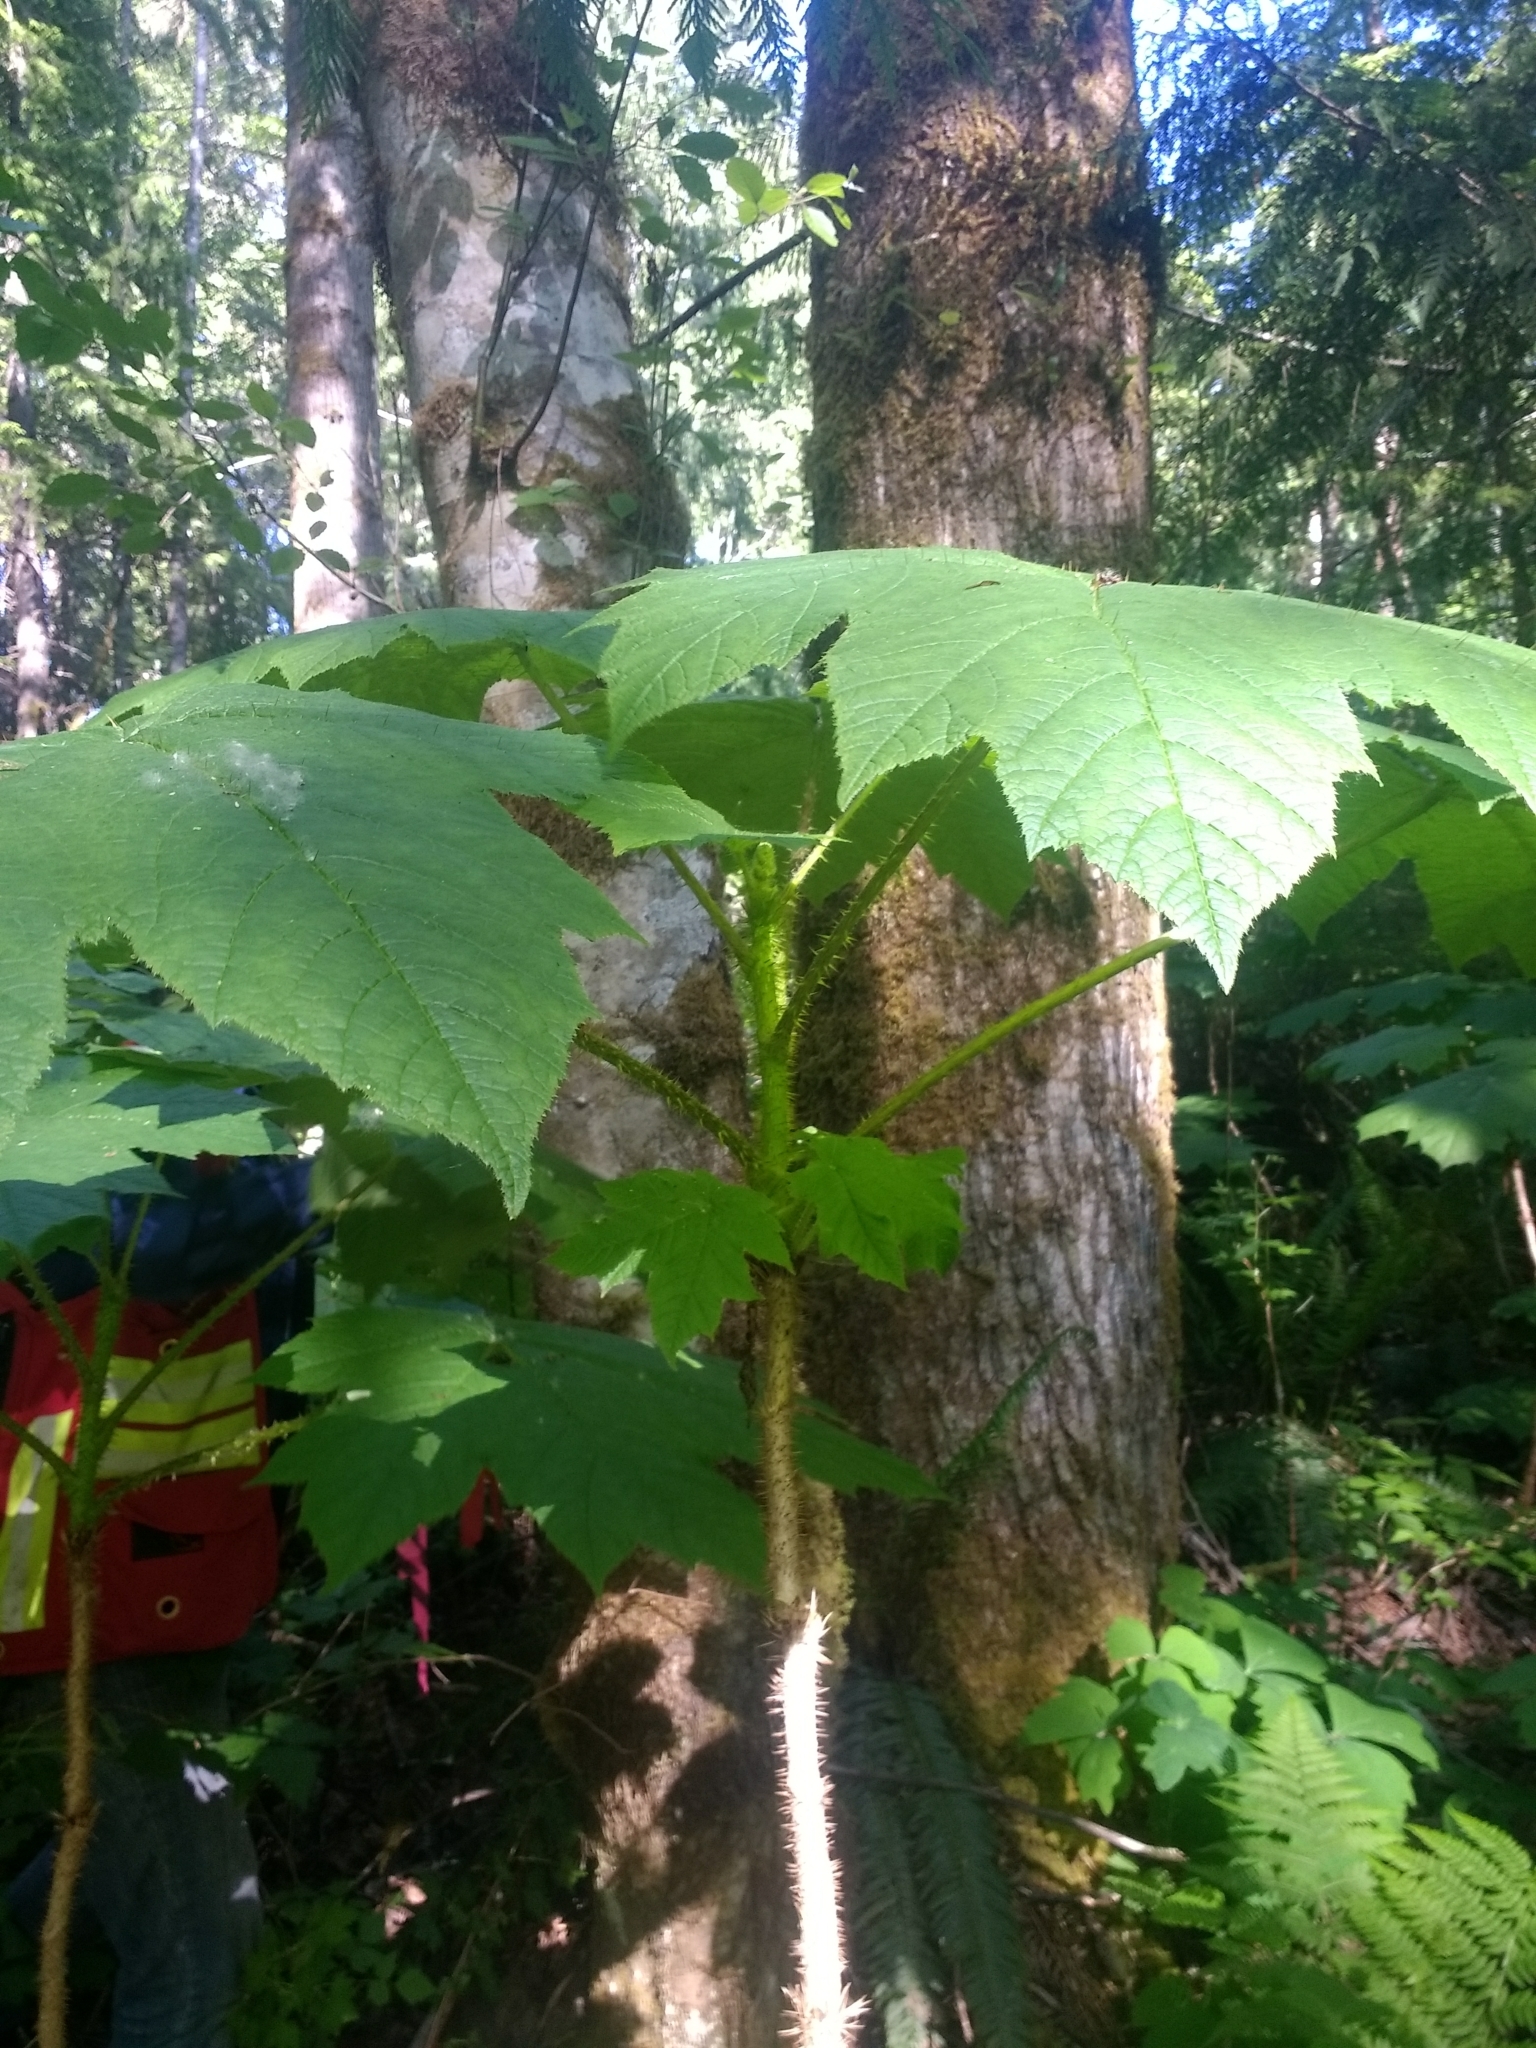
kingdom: Plantae
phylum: Tracheophyta
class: Magnoliopsida
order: Apiales
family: Araliaceae
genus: Oplopanax
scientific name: Oplopanax horridus
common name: Devil's walking-stick
